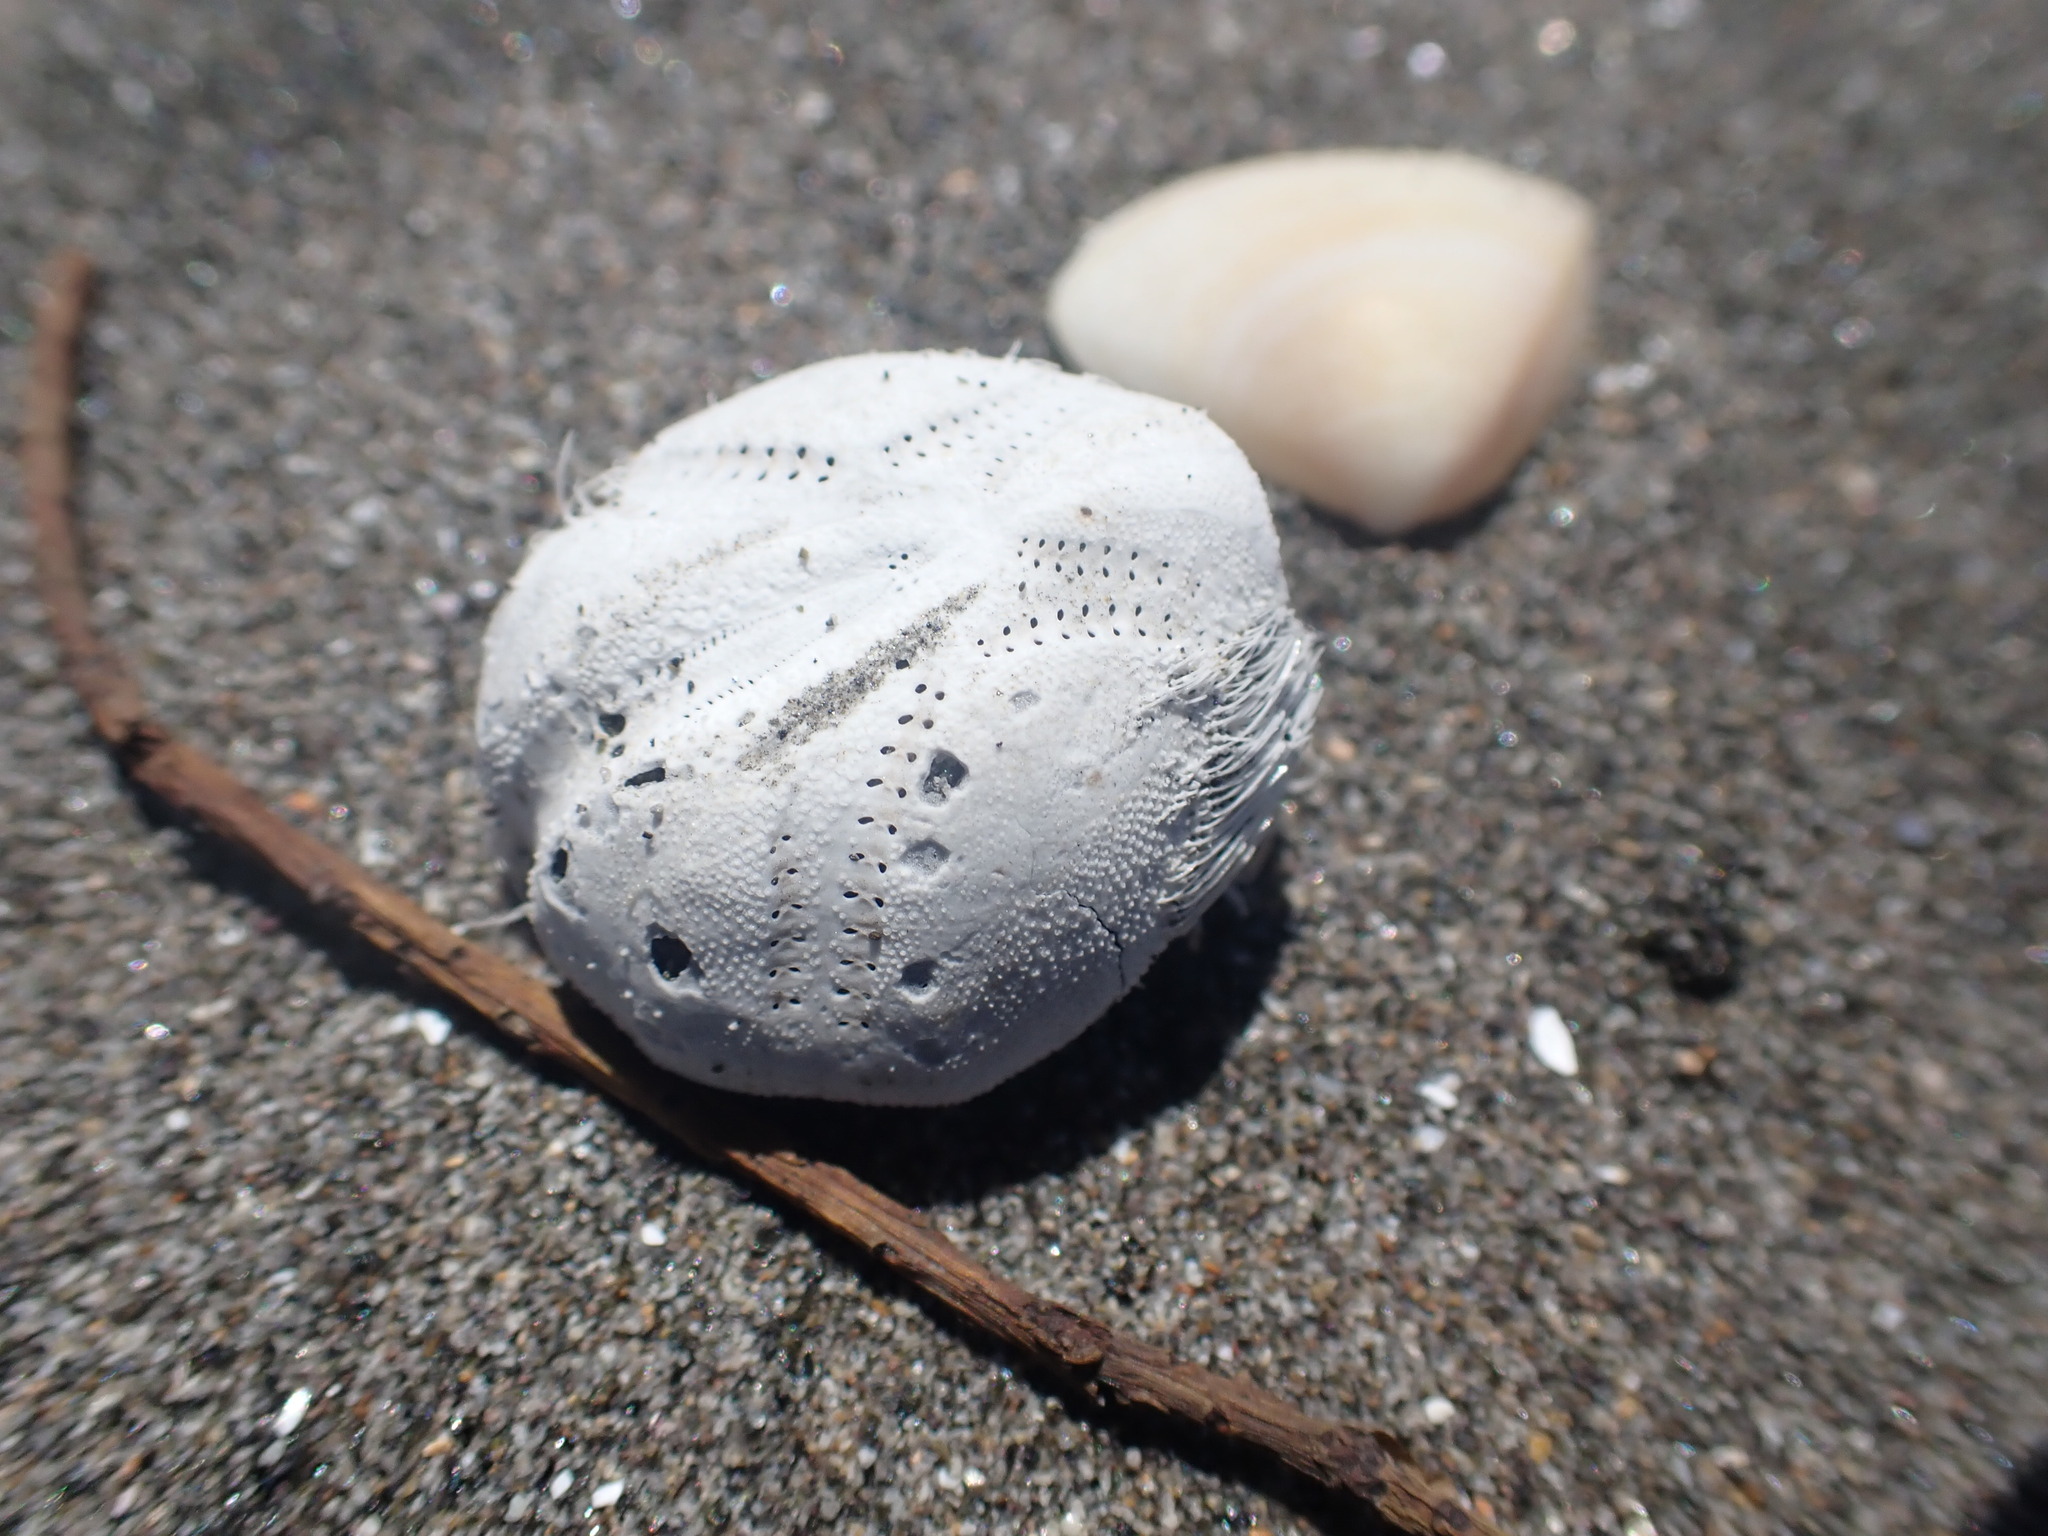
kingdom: Animalia
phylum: Echinodermata
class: Echinoidea
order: Spatangoida
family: Loveniidae
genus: Echinocardium
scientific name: Echinocardium cordatum
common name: Heart-urchin
